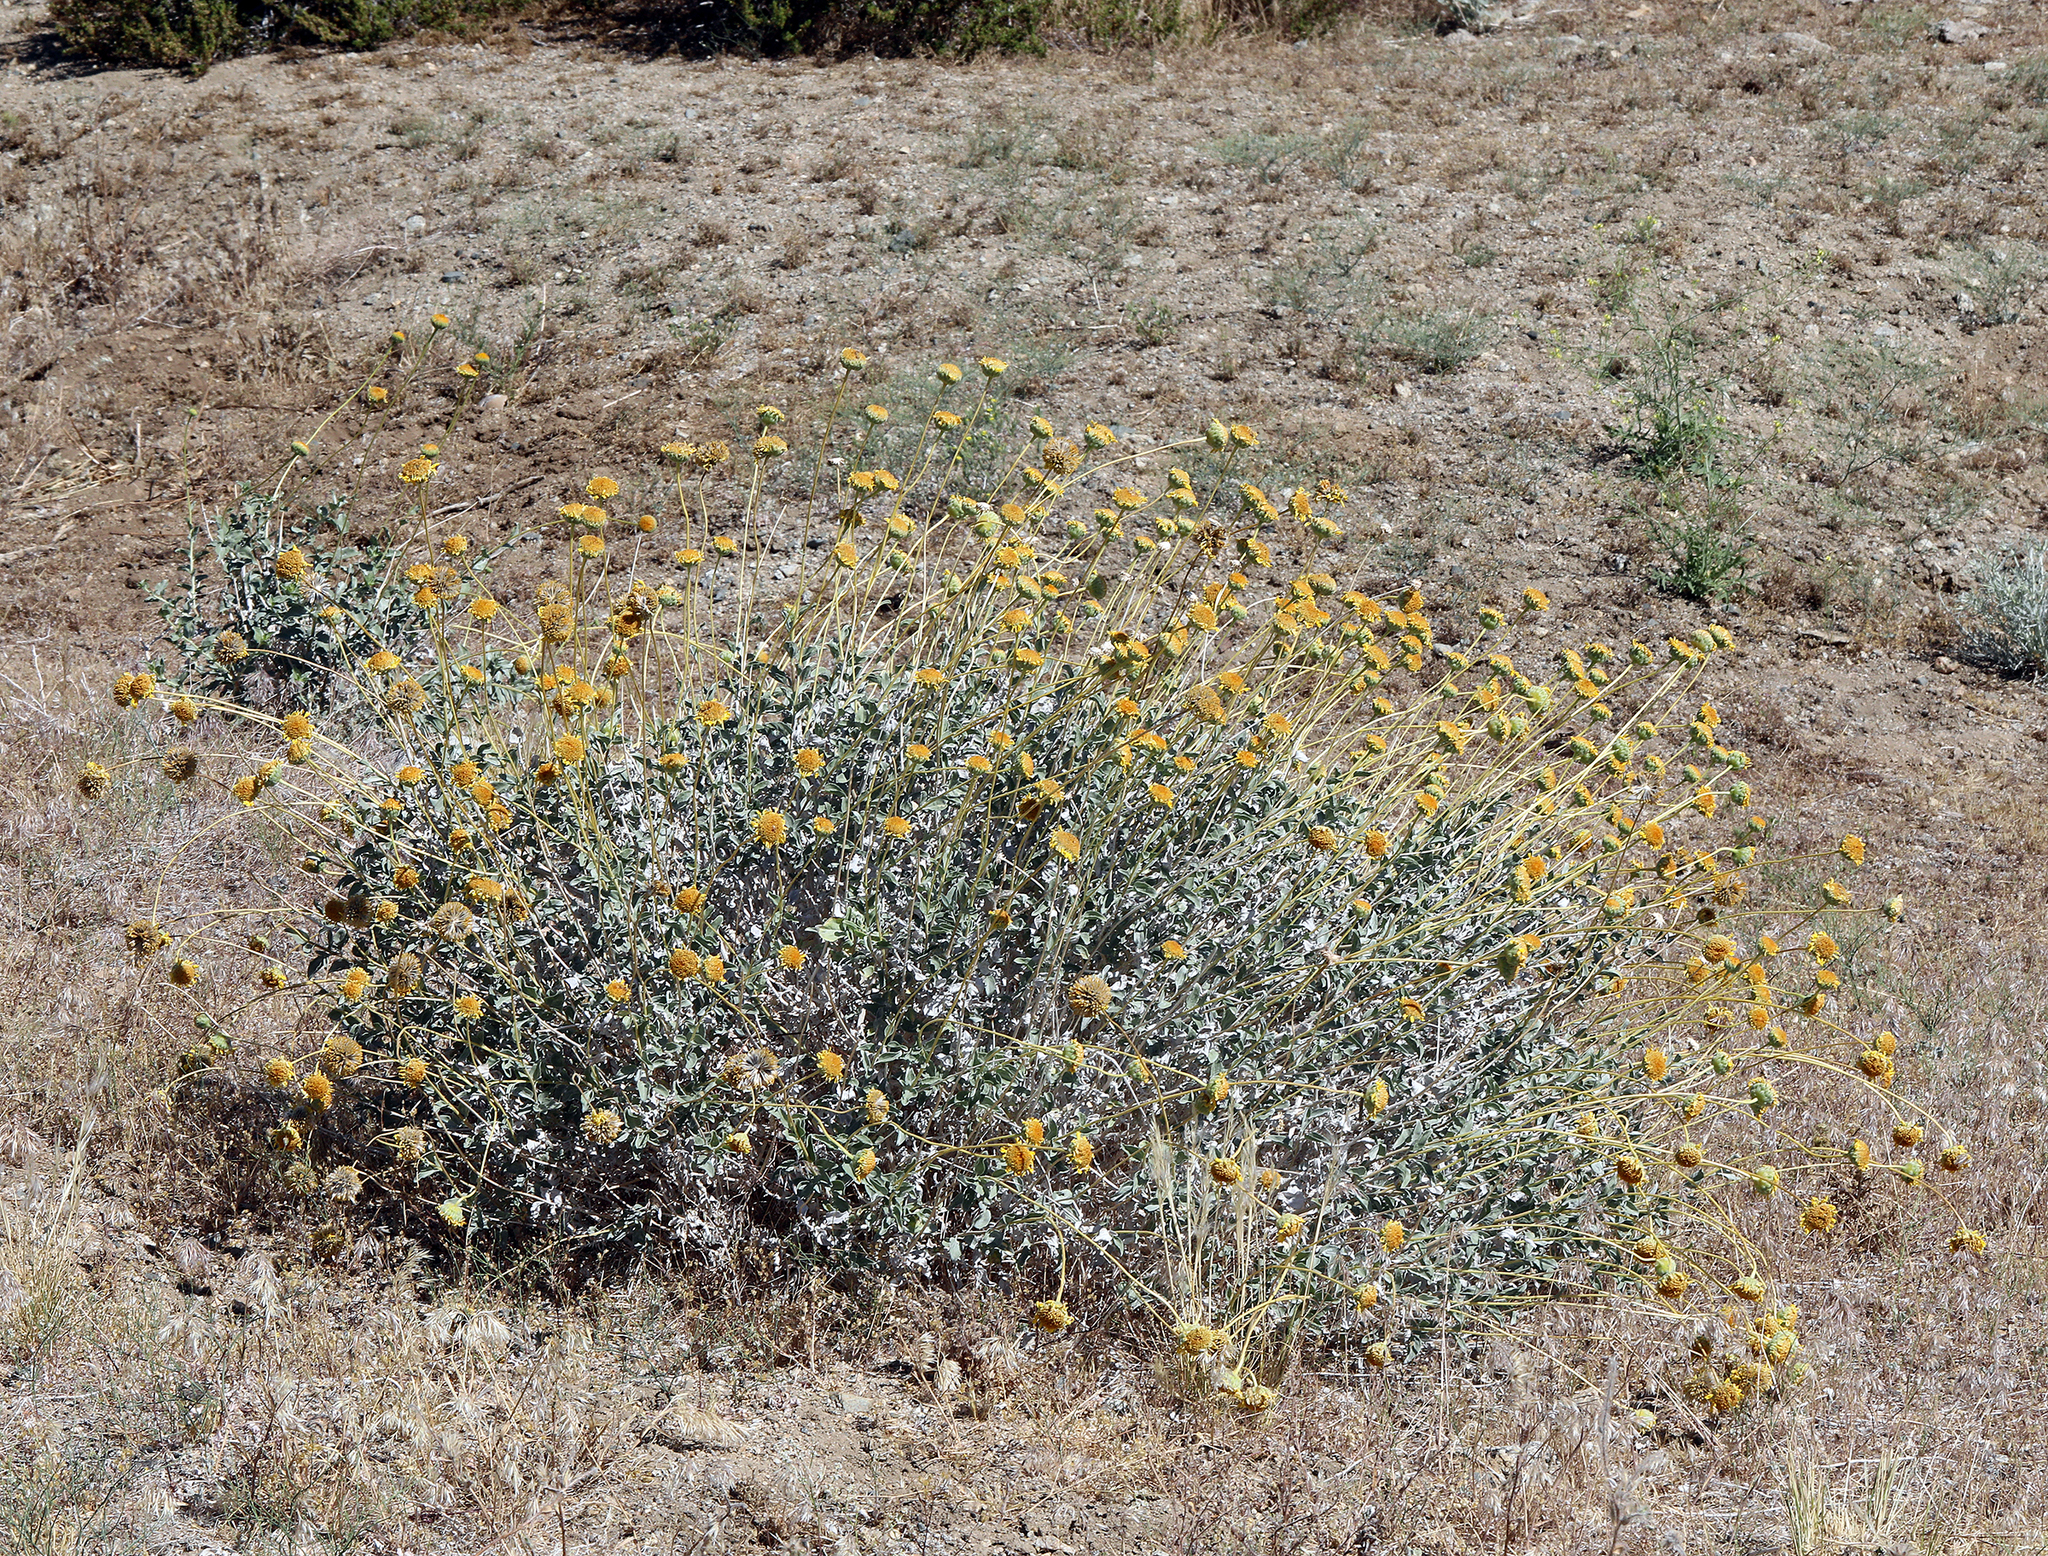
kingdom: Plantae
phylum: Tracheophyta
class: Magnoliopsida
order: Asterales
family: Asteraceae
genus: Encelia
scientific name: Encelia actoni
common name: Acton encelia
